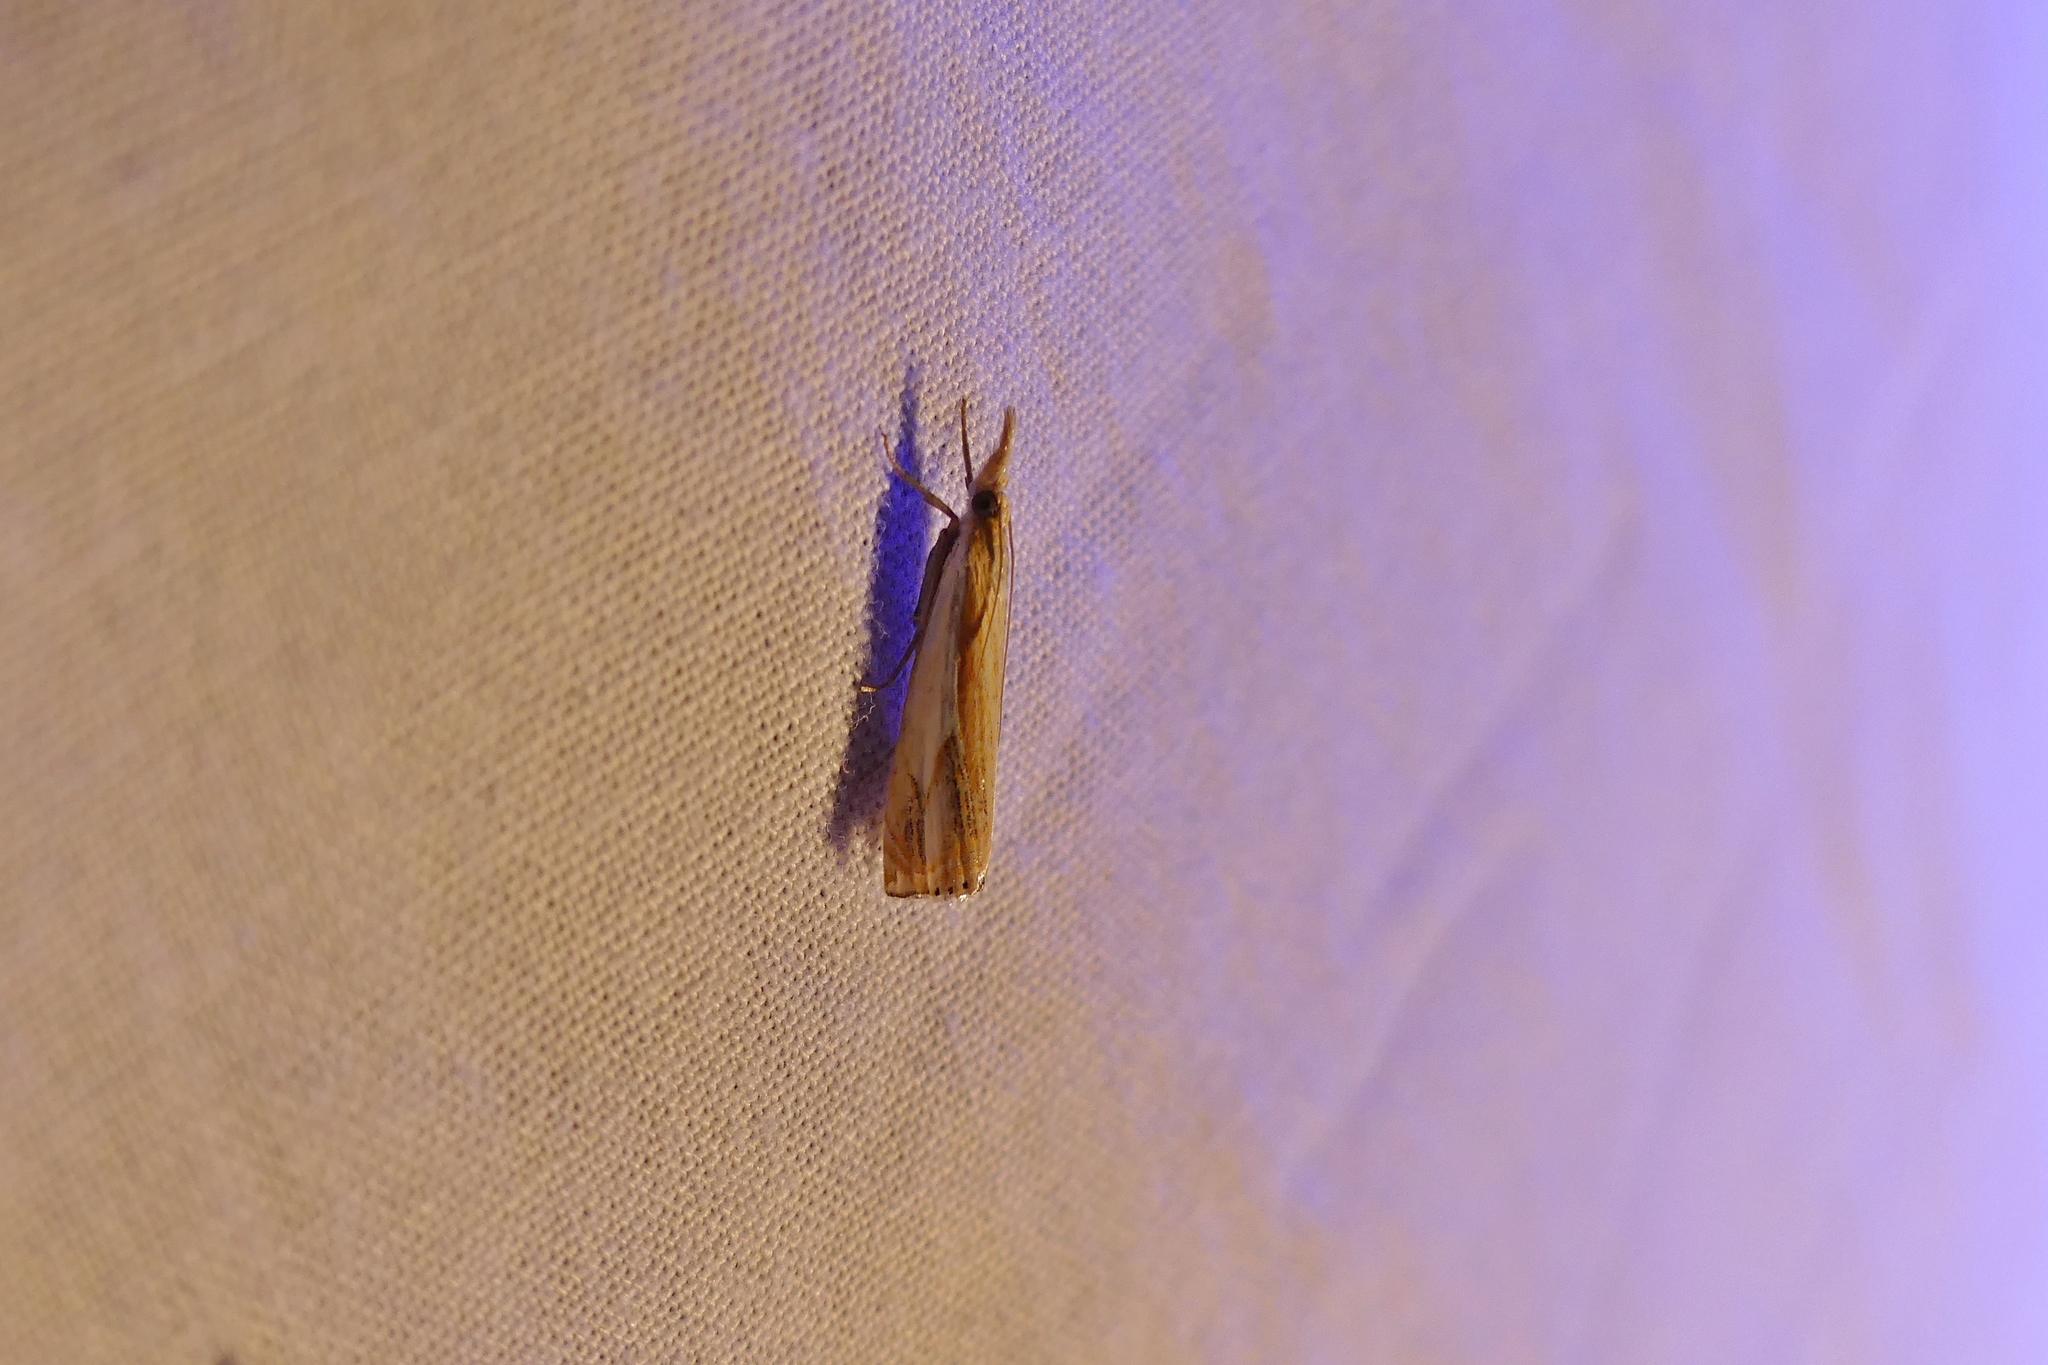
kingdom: Animalia
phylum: Arthropoda
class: Insecta
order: Lepidoptera
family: Crambidae
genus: Crambus
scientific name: Crambus agitatellus
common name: Double-banded grass-veneer
